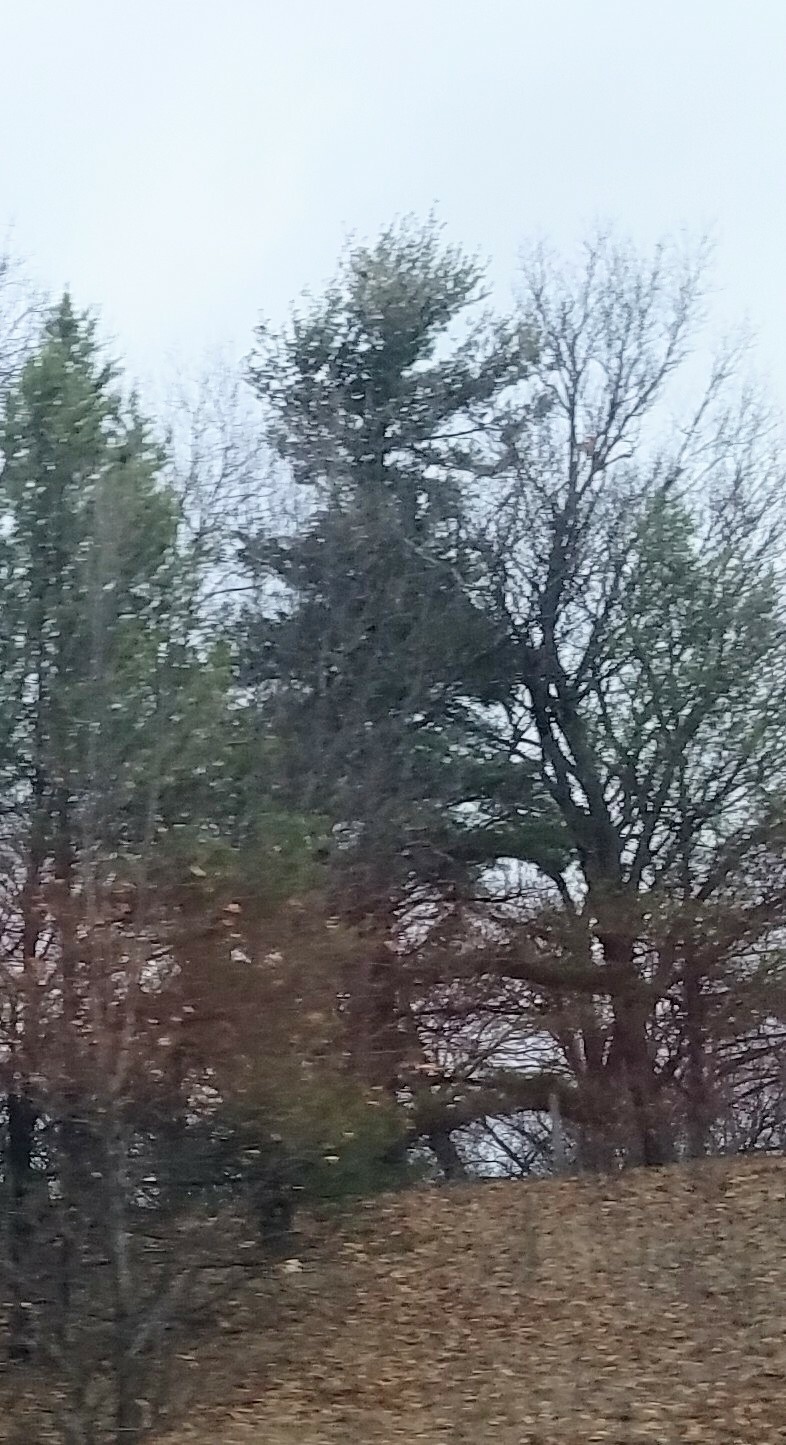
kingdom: Plantae
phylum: Tracheophyta
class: Pinopsida
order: Pinales
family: Pinaceae
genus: Pinus
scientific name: Pinus strobus
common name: Weymouth pine
